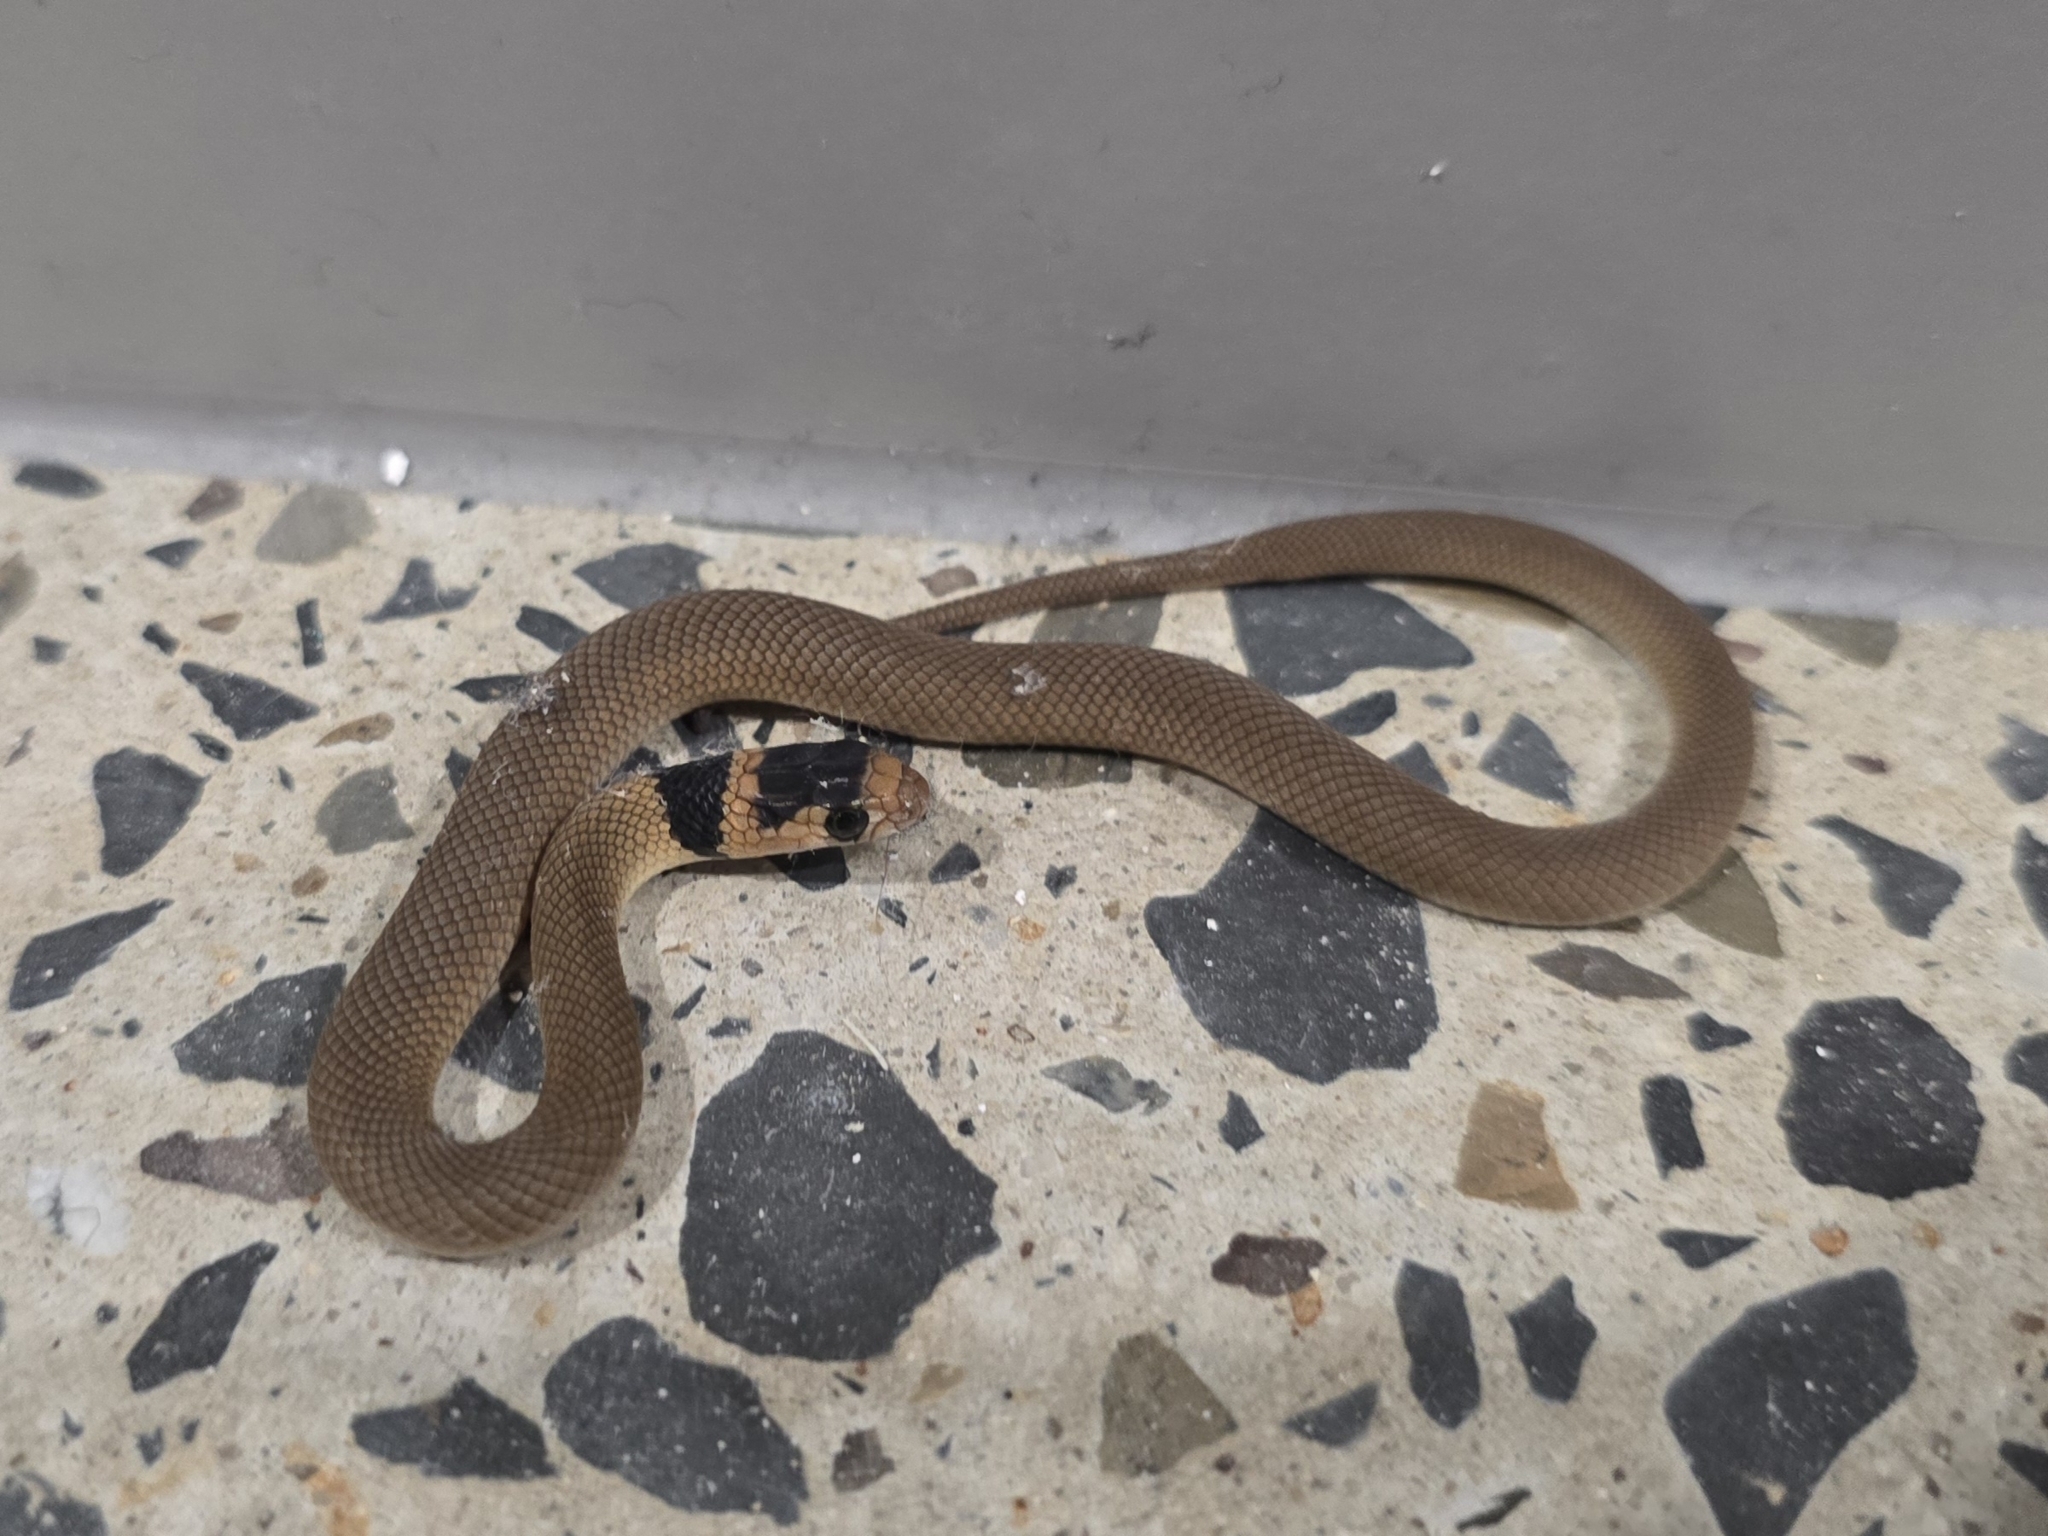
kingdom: Animalia
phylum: Chordata
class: Squamata
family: Elapidae
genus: Pseudonaja
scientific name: Pseudonaja textilis
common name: Eastern brown snake
